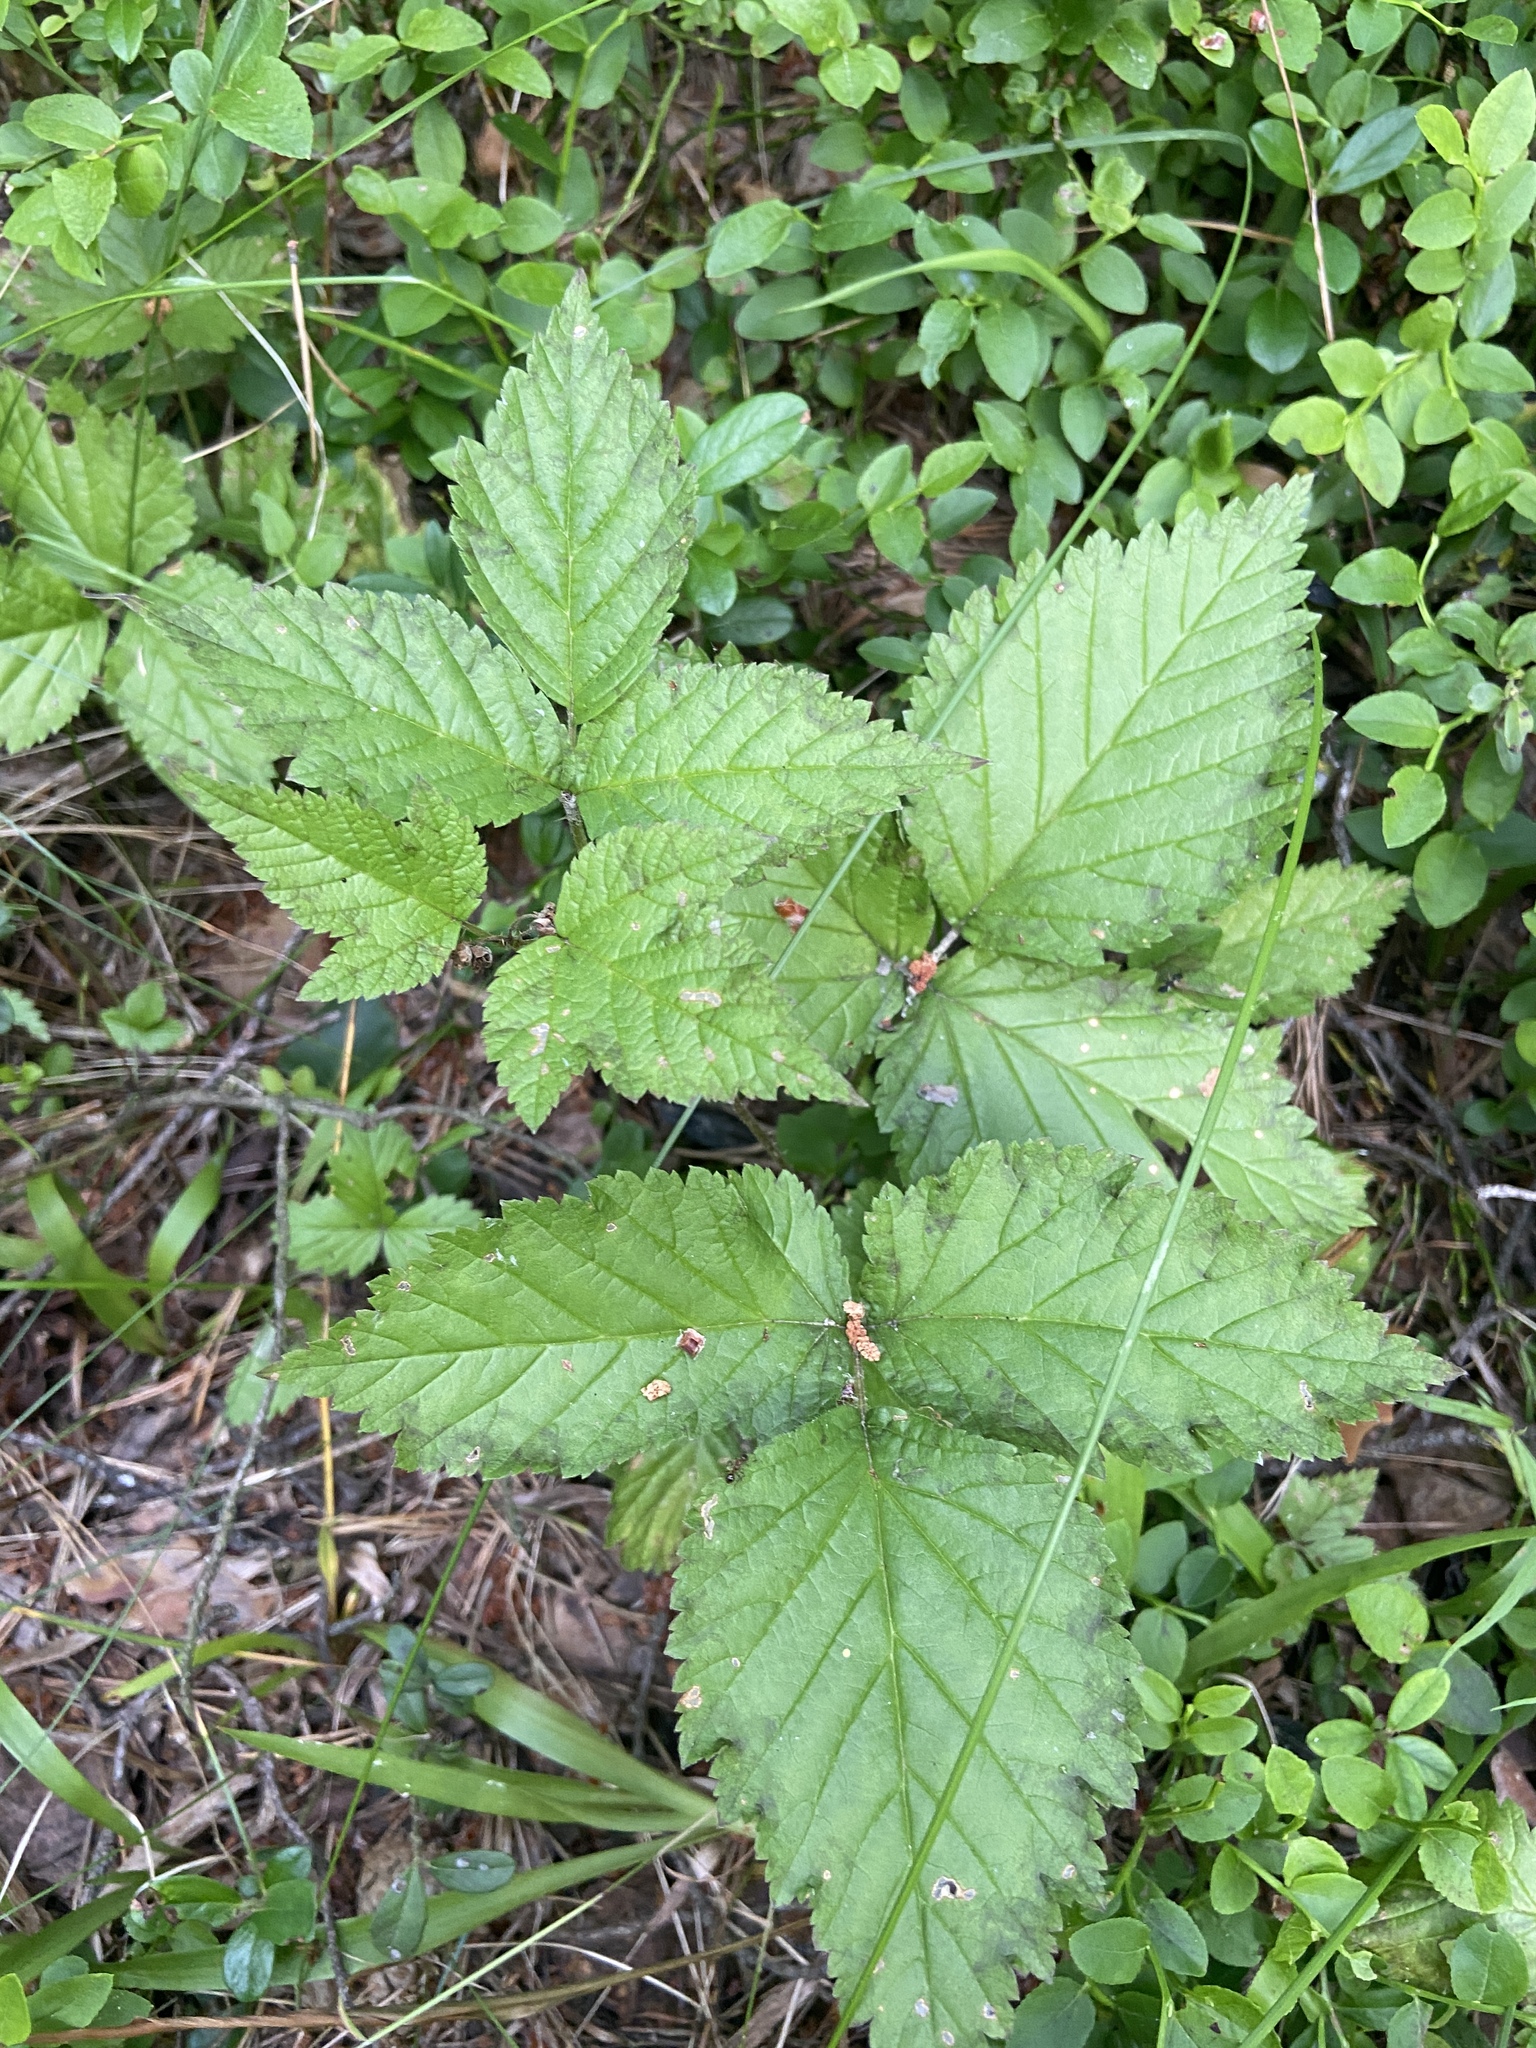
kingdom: Plantae
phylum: Tracheophyta
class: Magnoliopsida
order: Rosales
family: Rosaceae
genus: Rubus
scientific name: Rubus saxatilis
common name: Stone bramble
